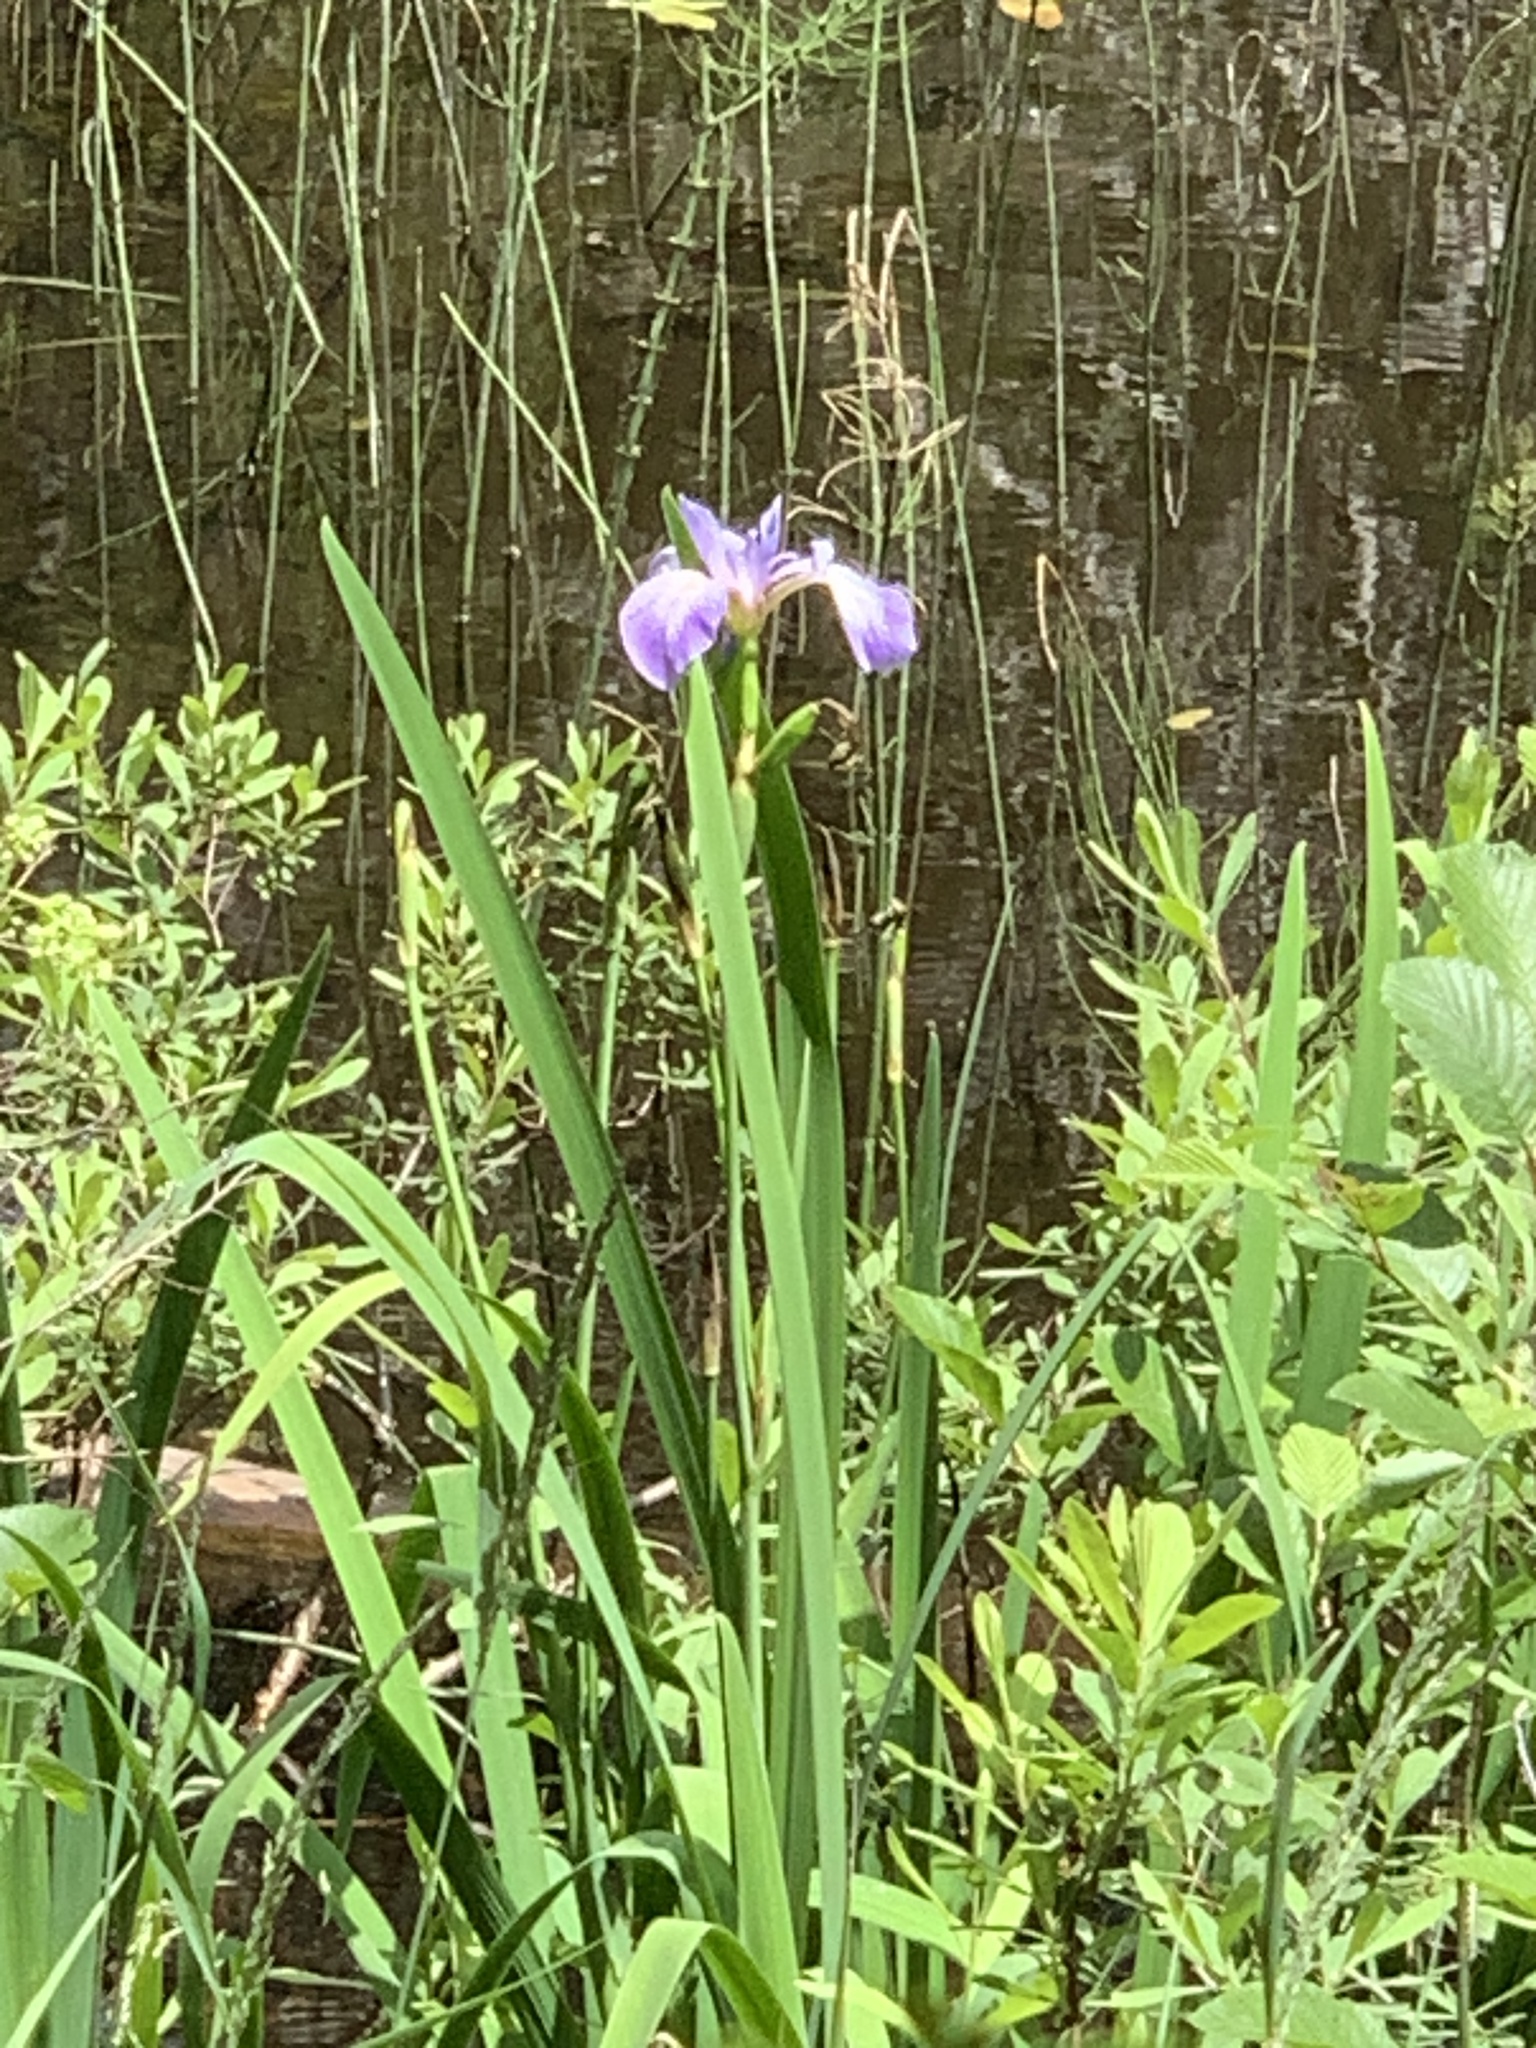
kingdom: Plantae
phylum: Tracheophyta
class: Liliopsida
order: Asparagales
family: Iridaceae
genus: Iris
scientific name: Iris versicolor
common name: Purple iris
